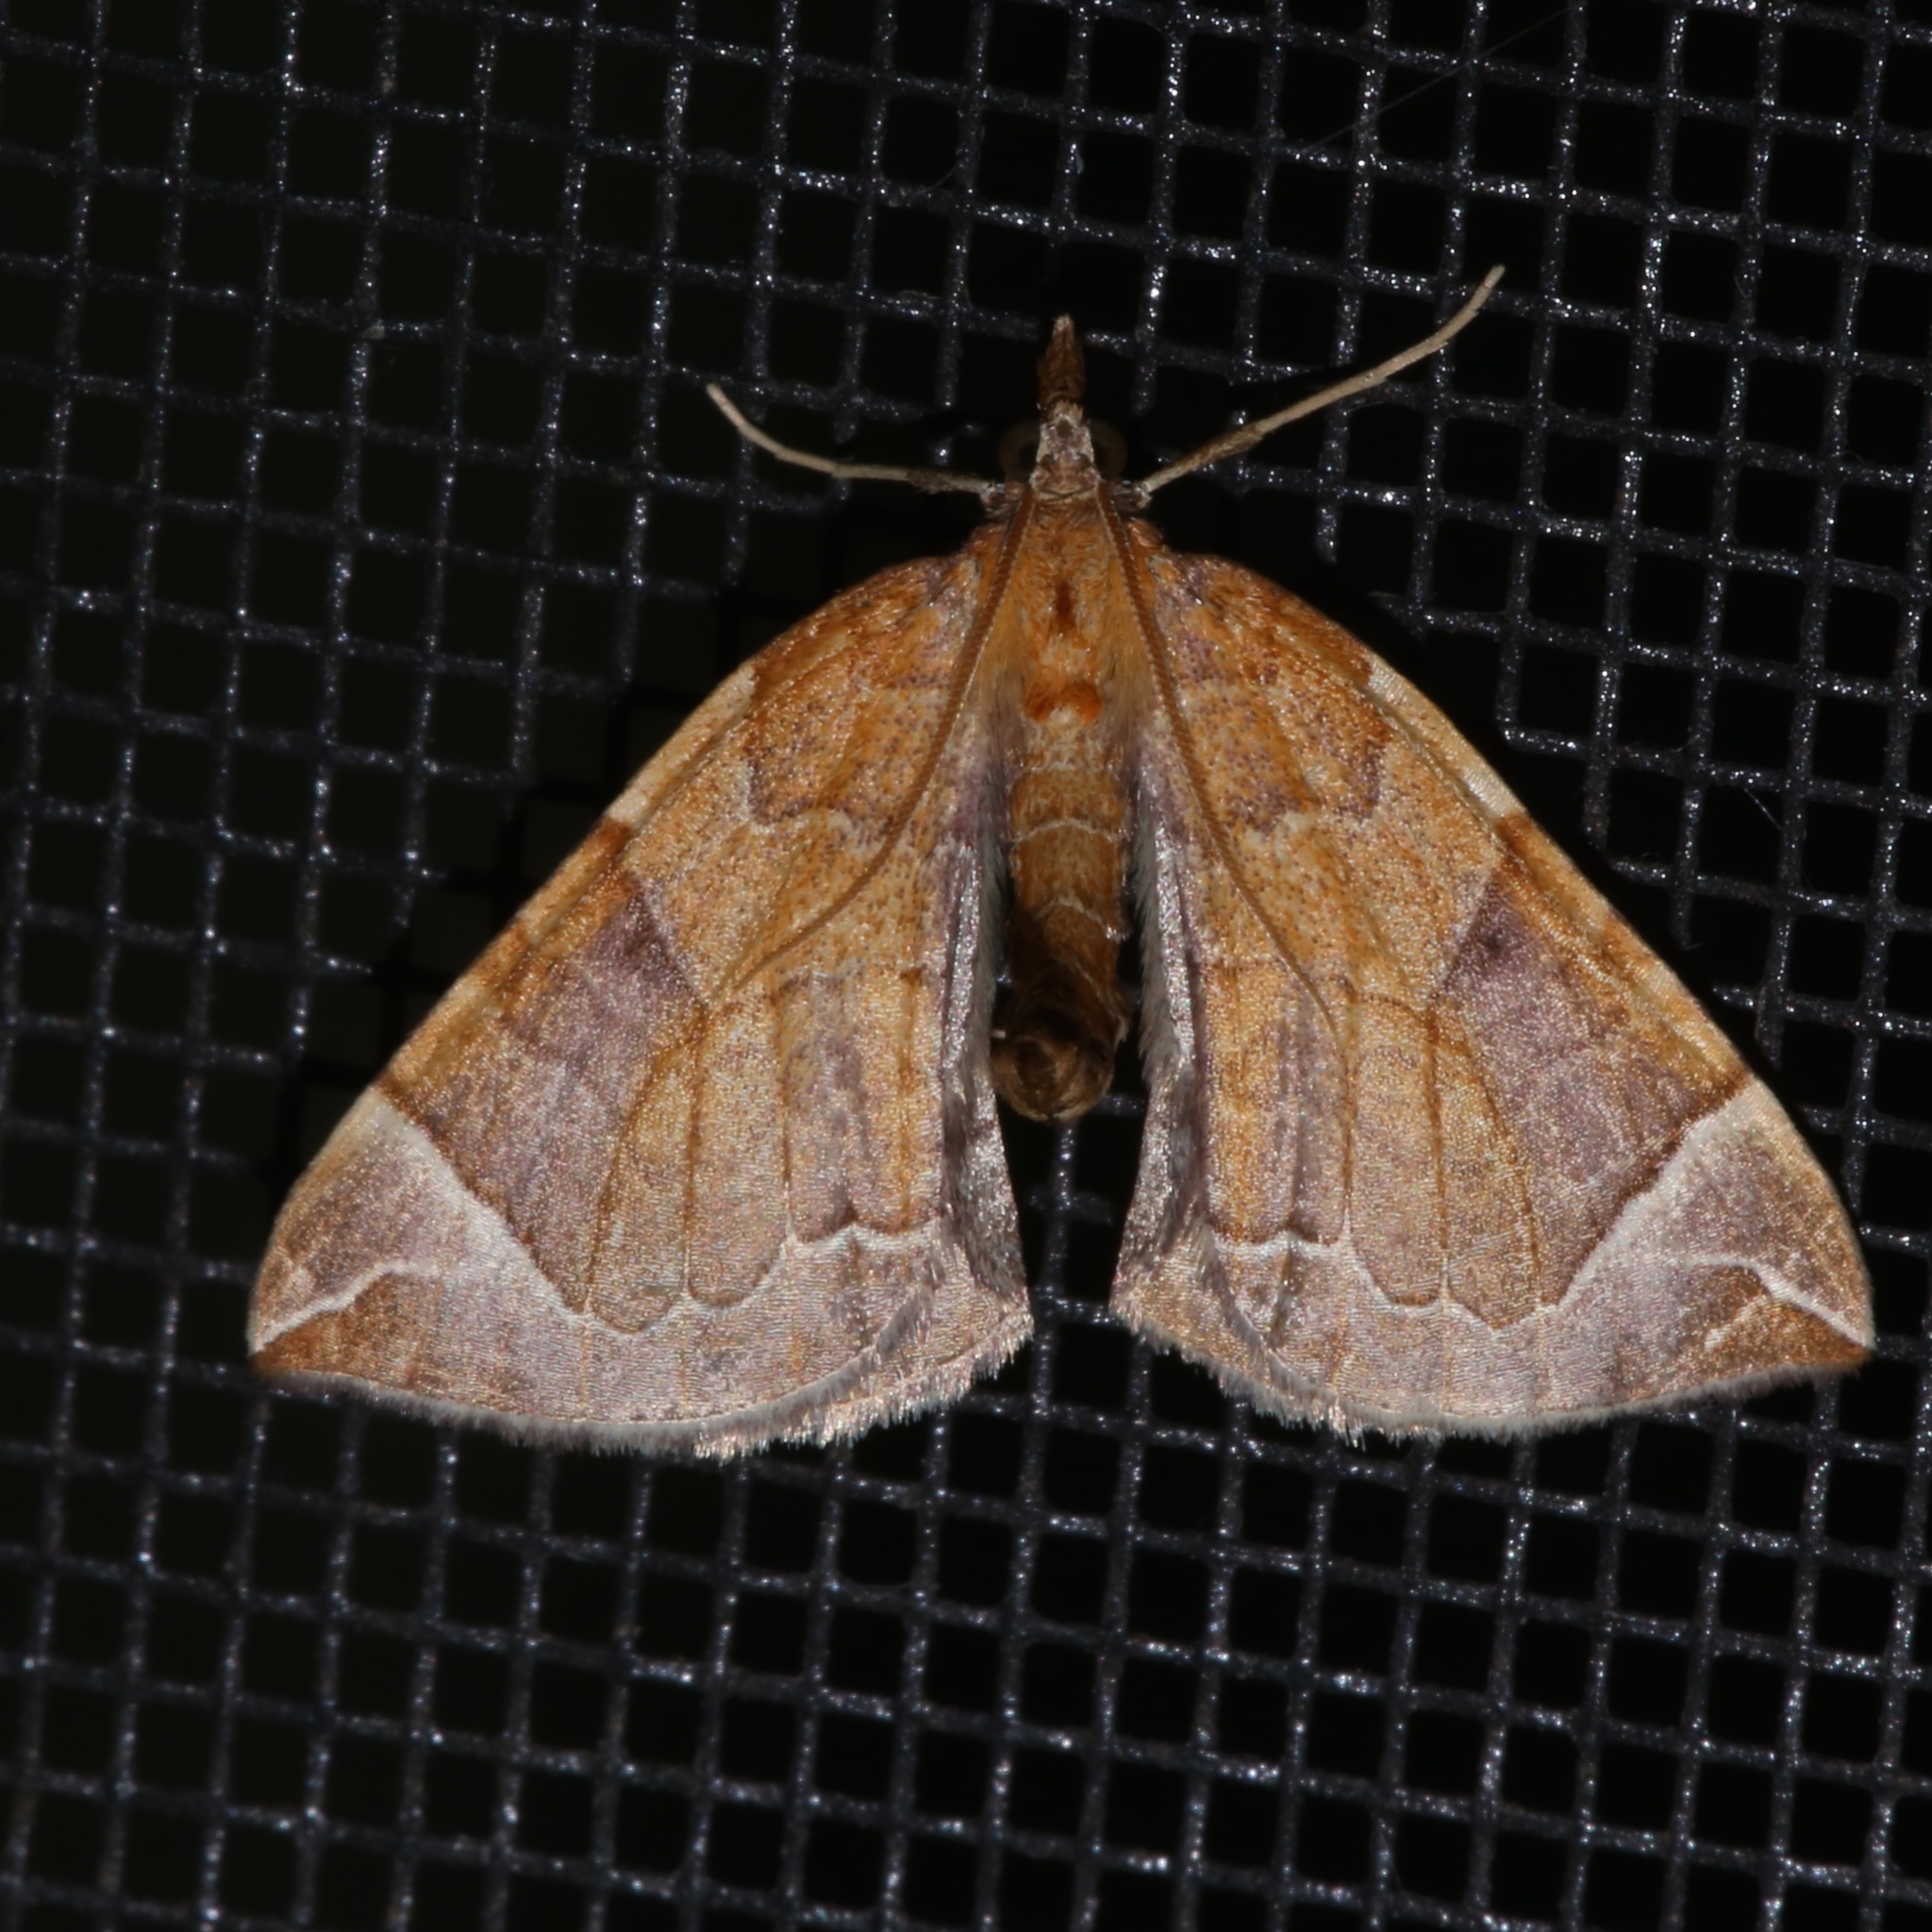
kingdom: Animalia
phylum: Arthropoda
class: Insecta
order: Lepidoptera
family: Geometridae
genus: Eulithis
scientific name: Eulithis testata
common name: Chevron
